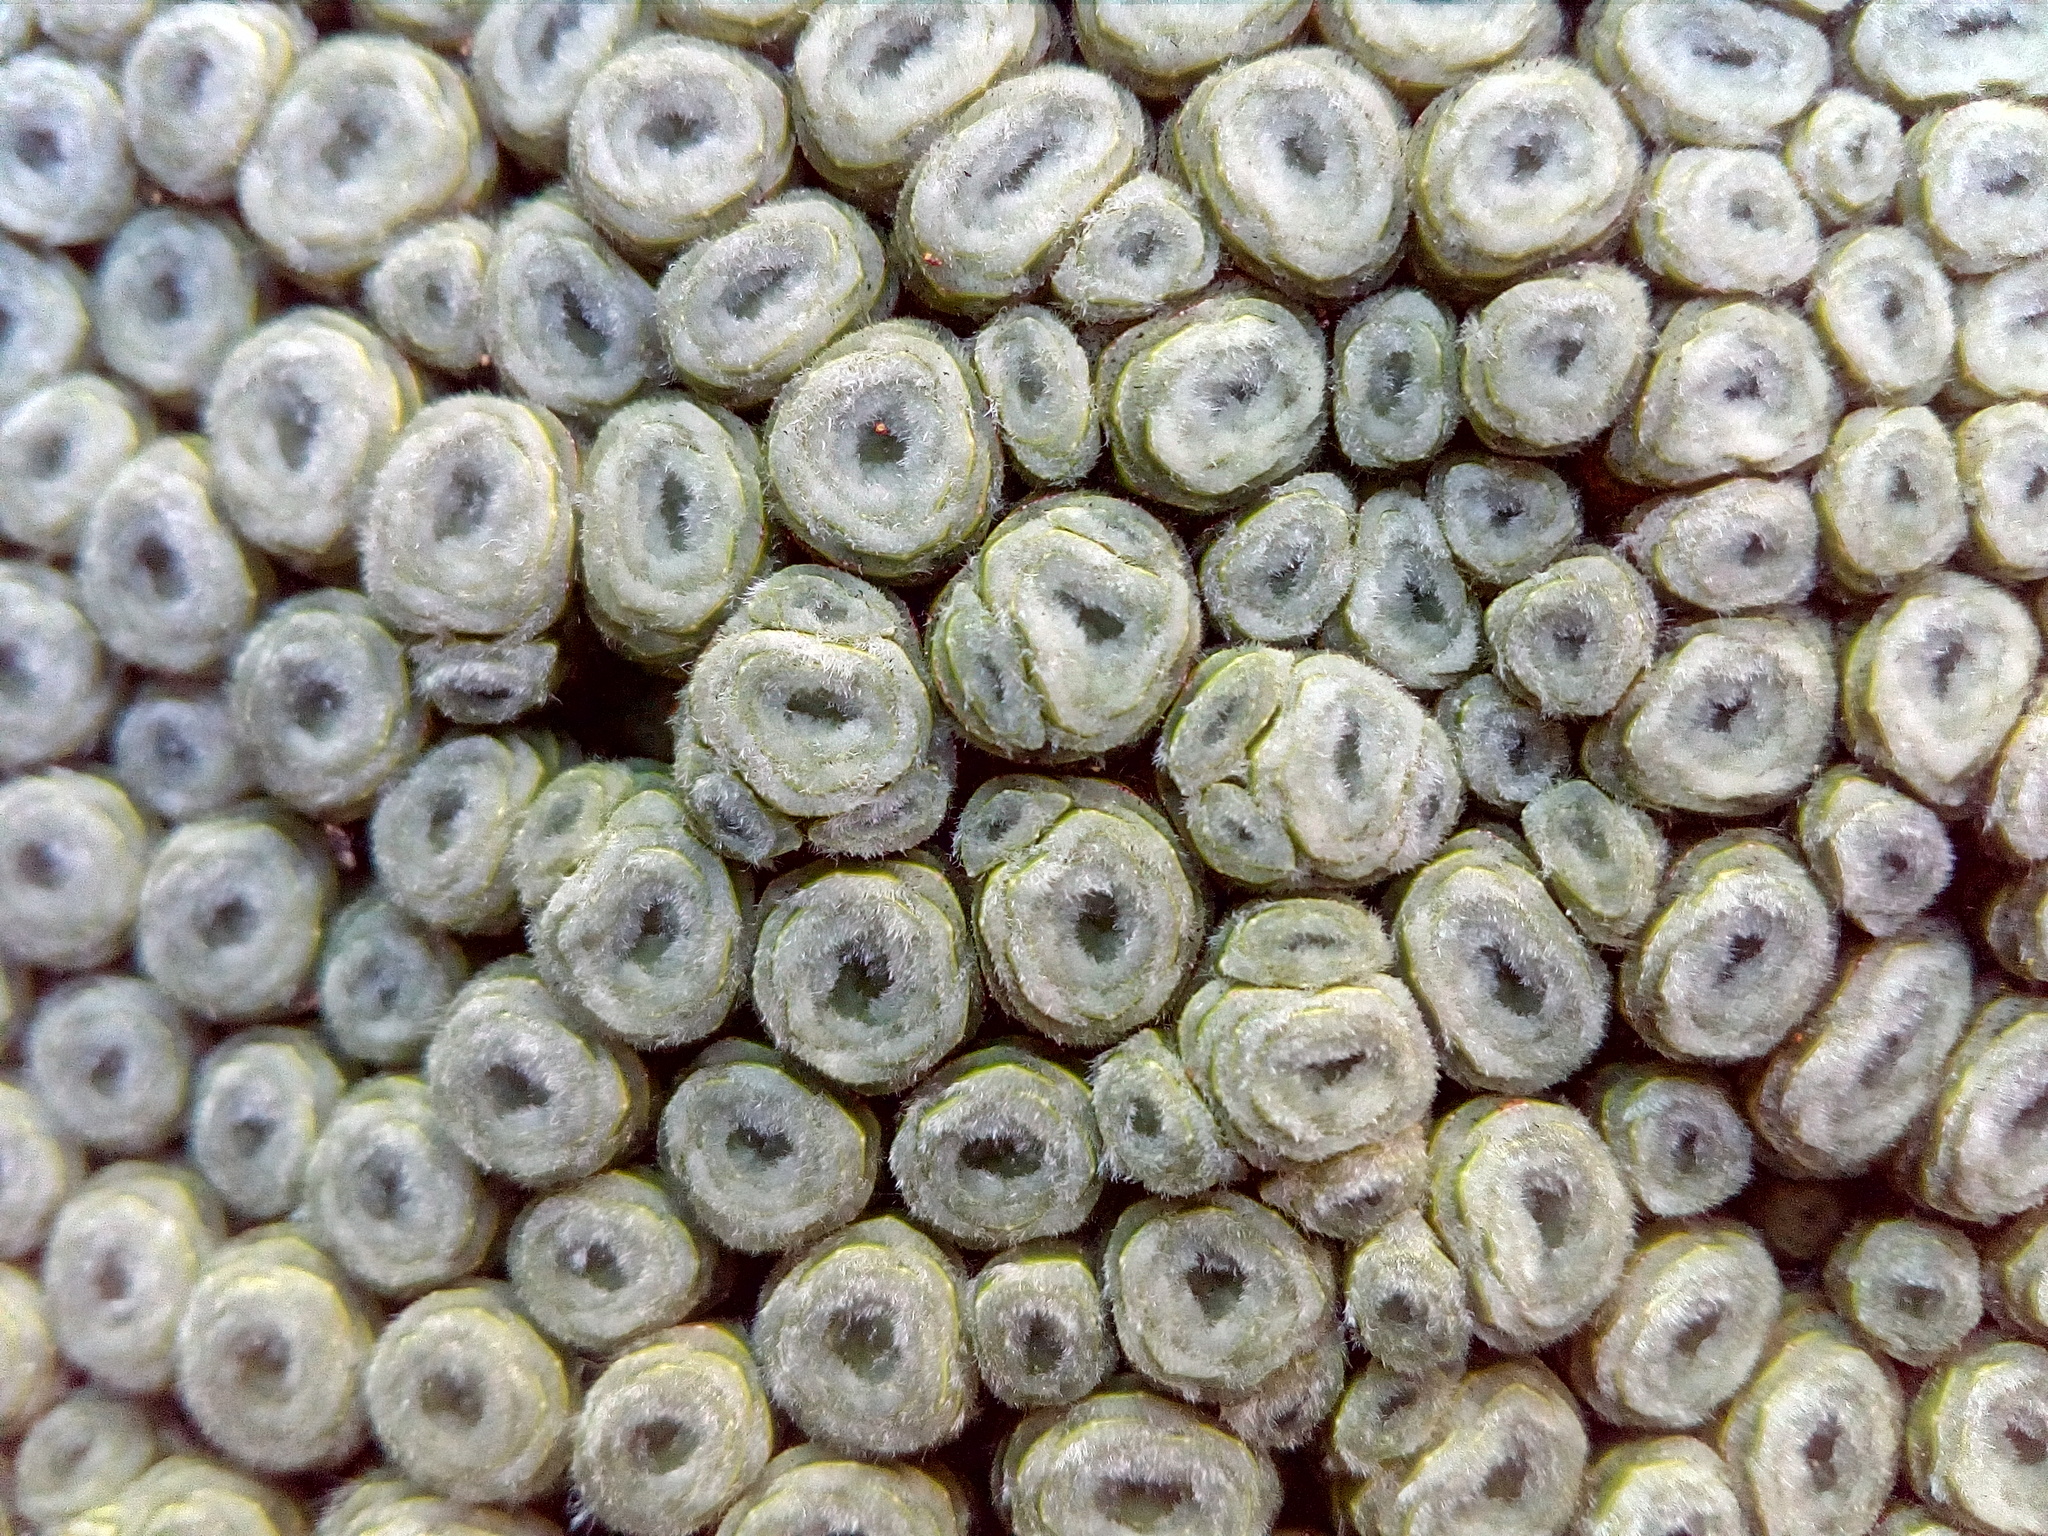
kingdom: Plantae
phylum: Tracheophyta
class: Magnoliopsida
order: Asterales
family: Asteraceae
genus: Raoulia
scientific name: Raoulia buchananii
